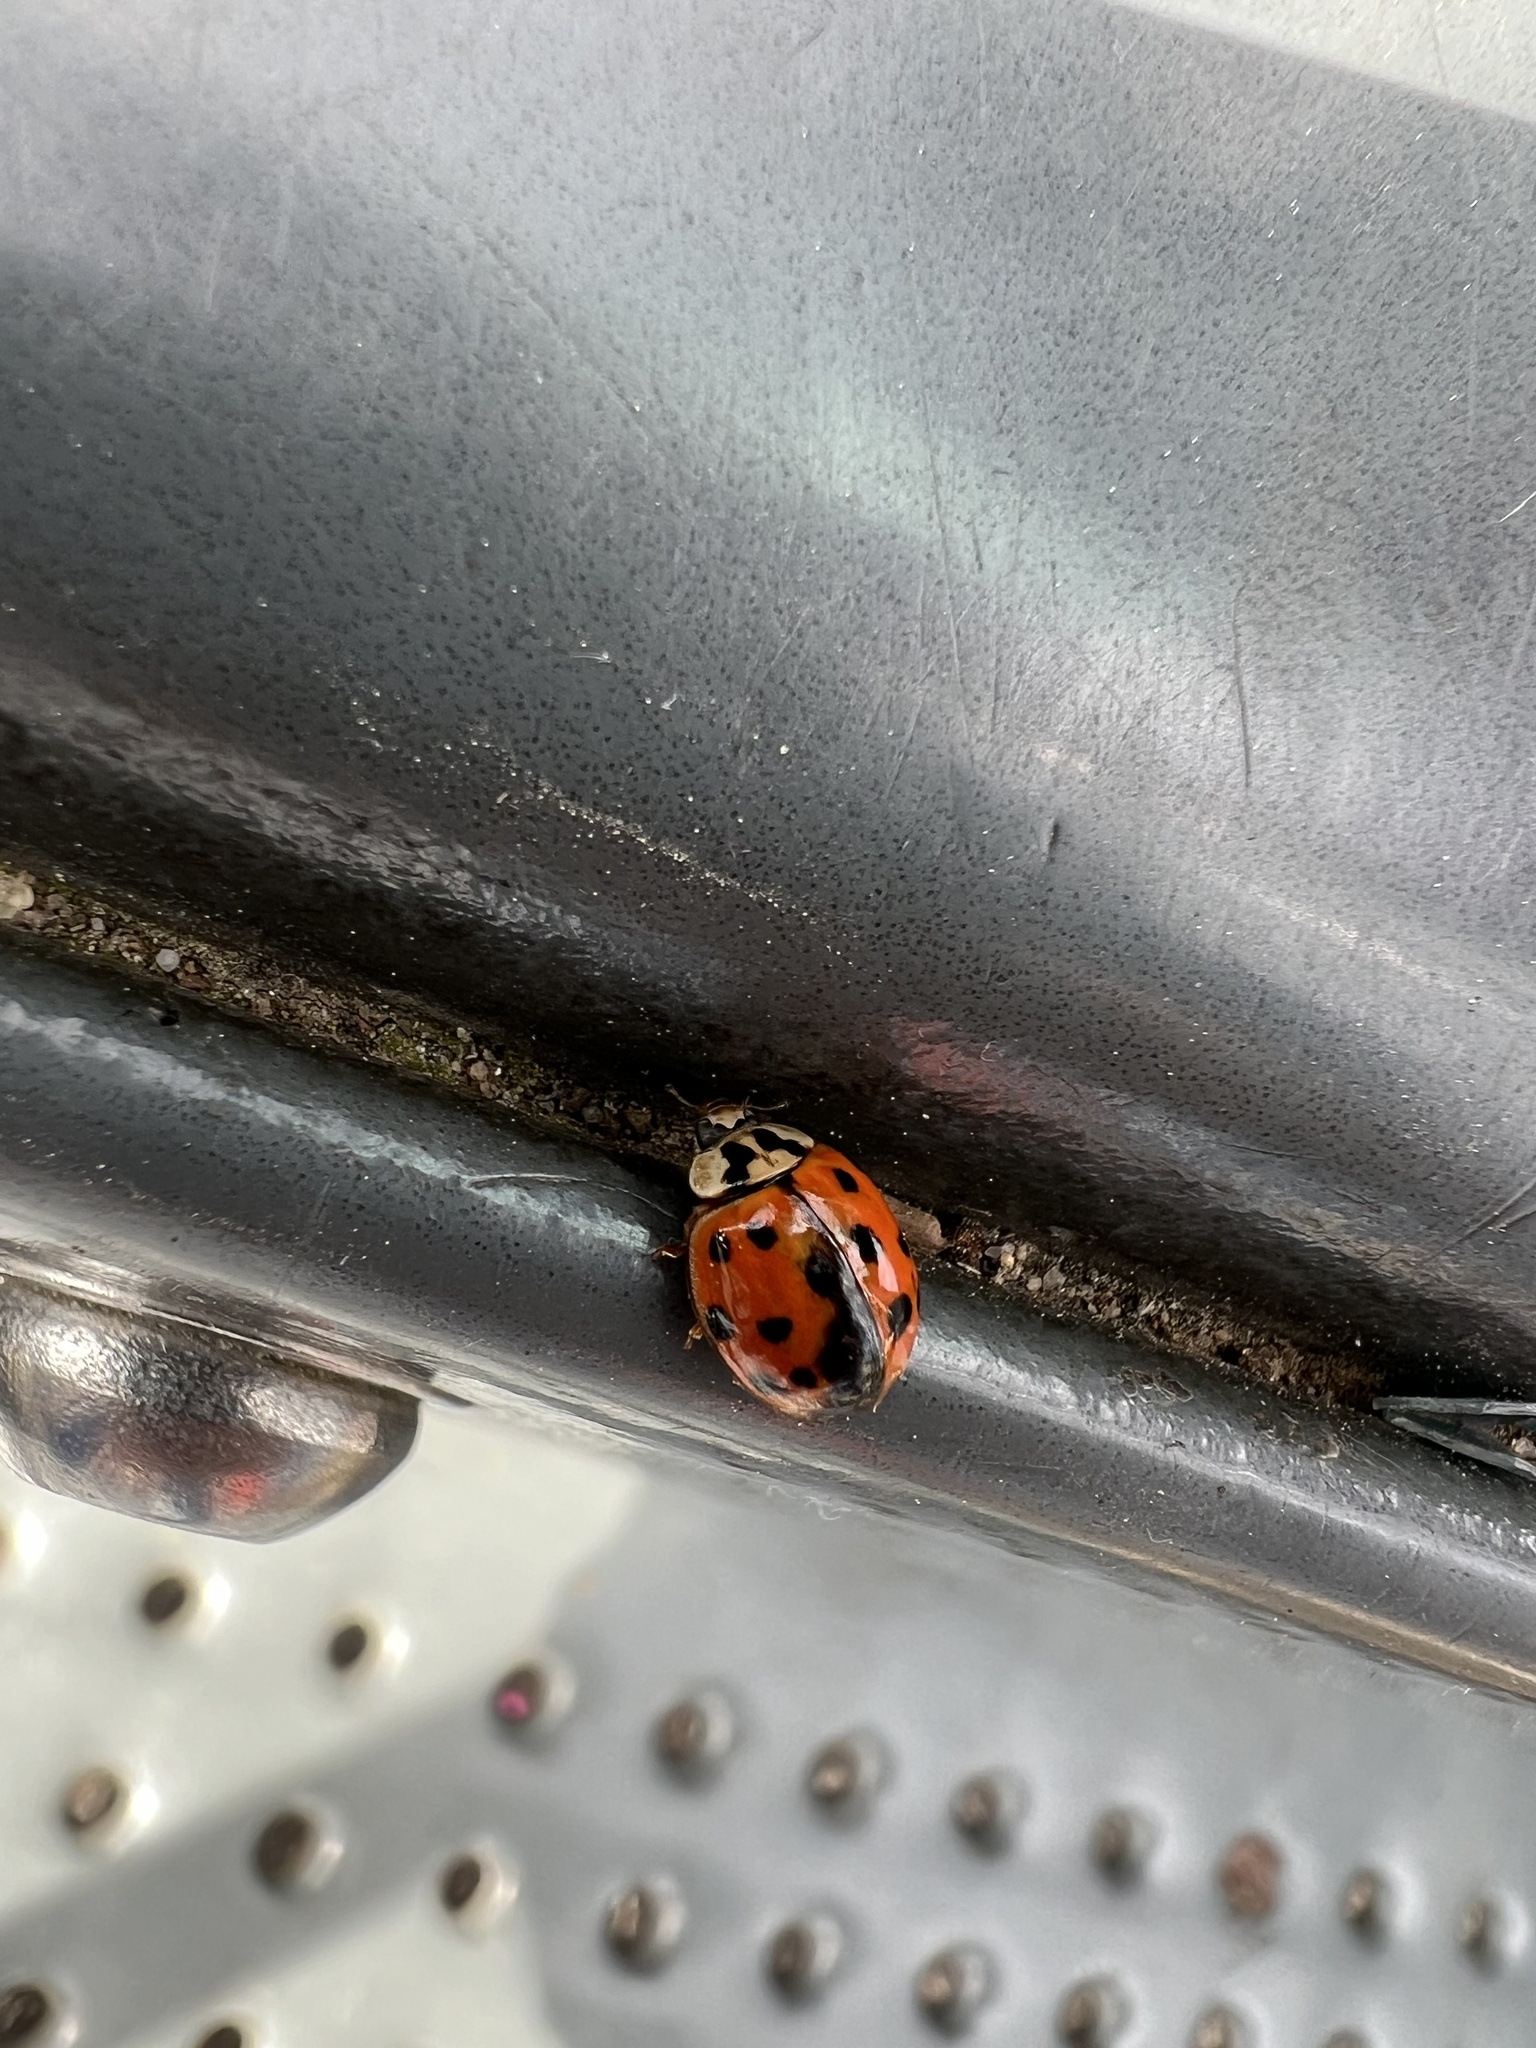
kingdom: Animalia
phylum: Arthropoda
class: Insecta
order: Coleoptera
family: Coccinellidae
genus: Harmonia
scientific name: Harmonia axyridis
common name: Harlequin ladybird
